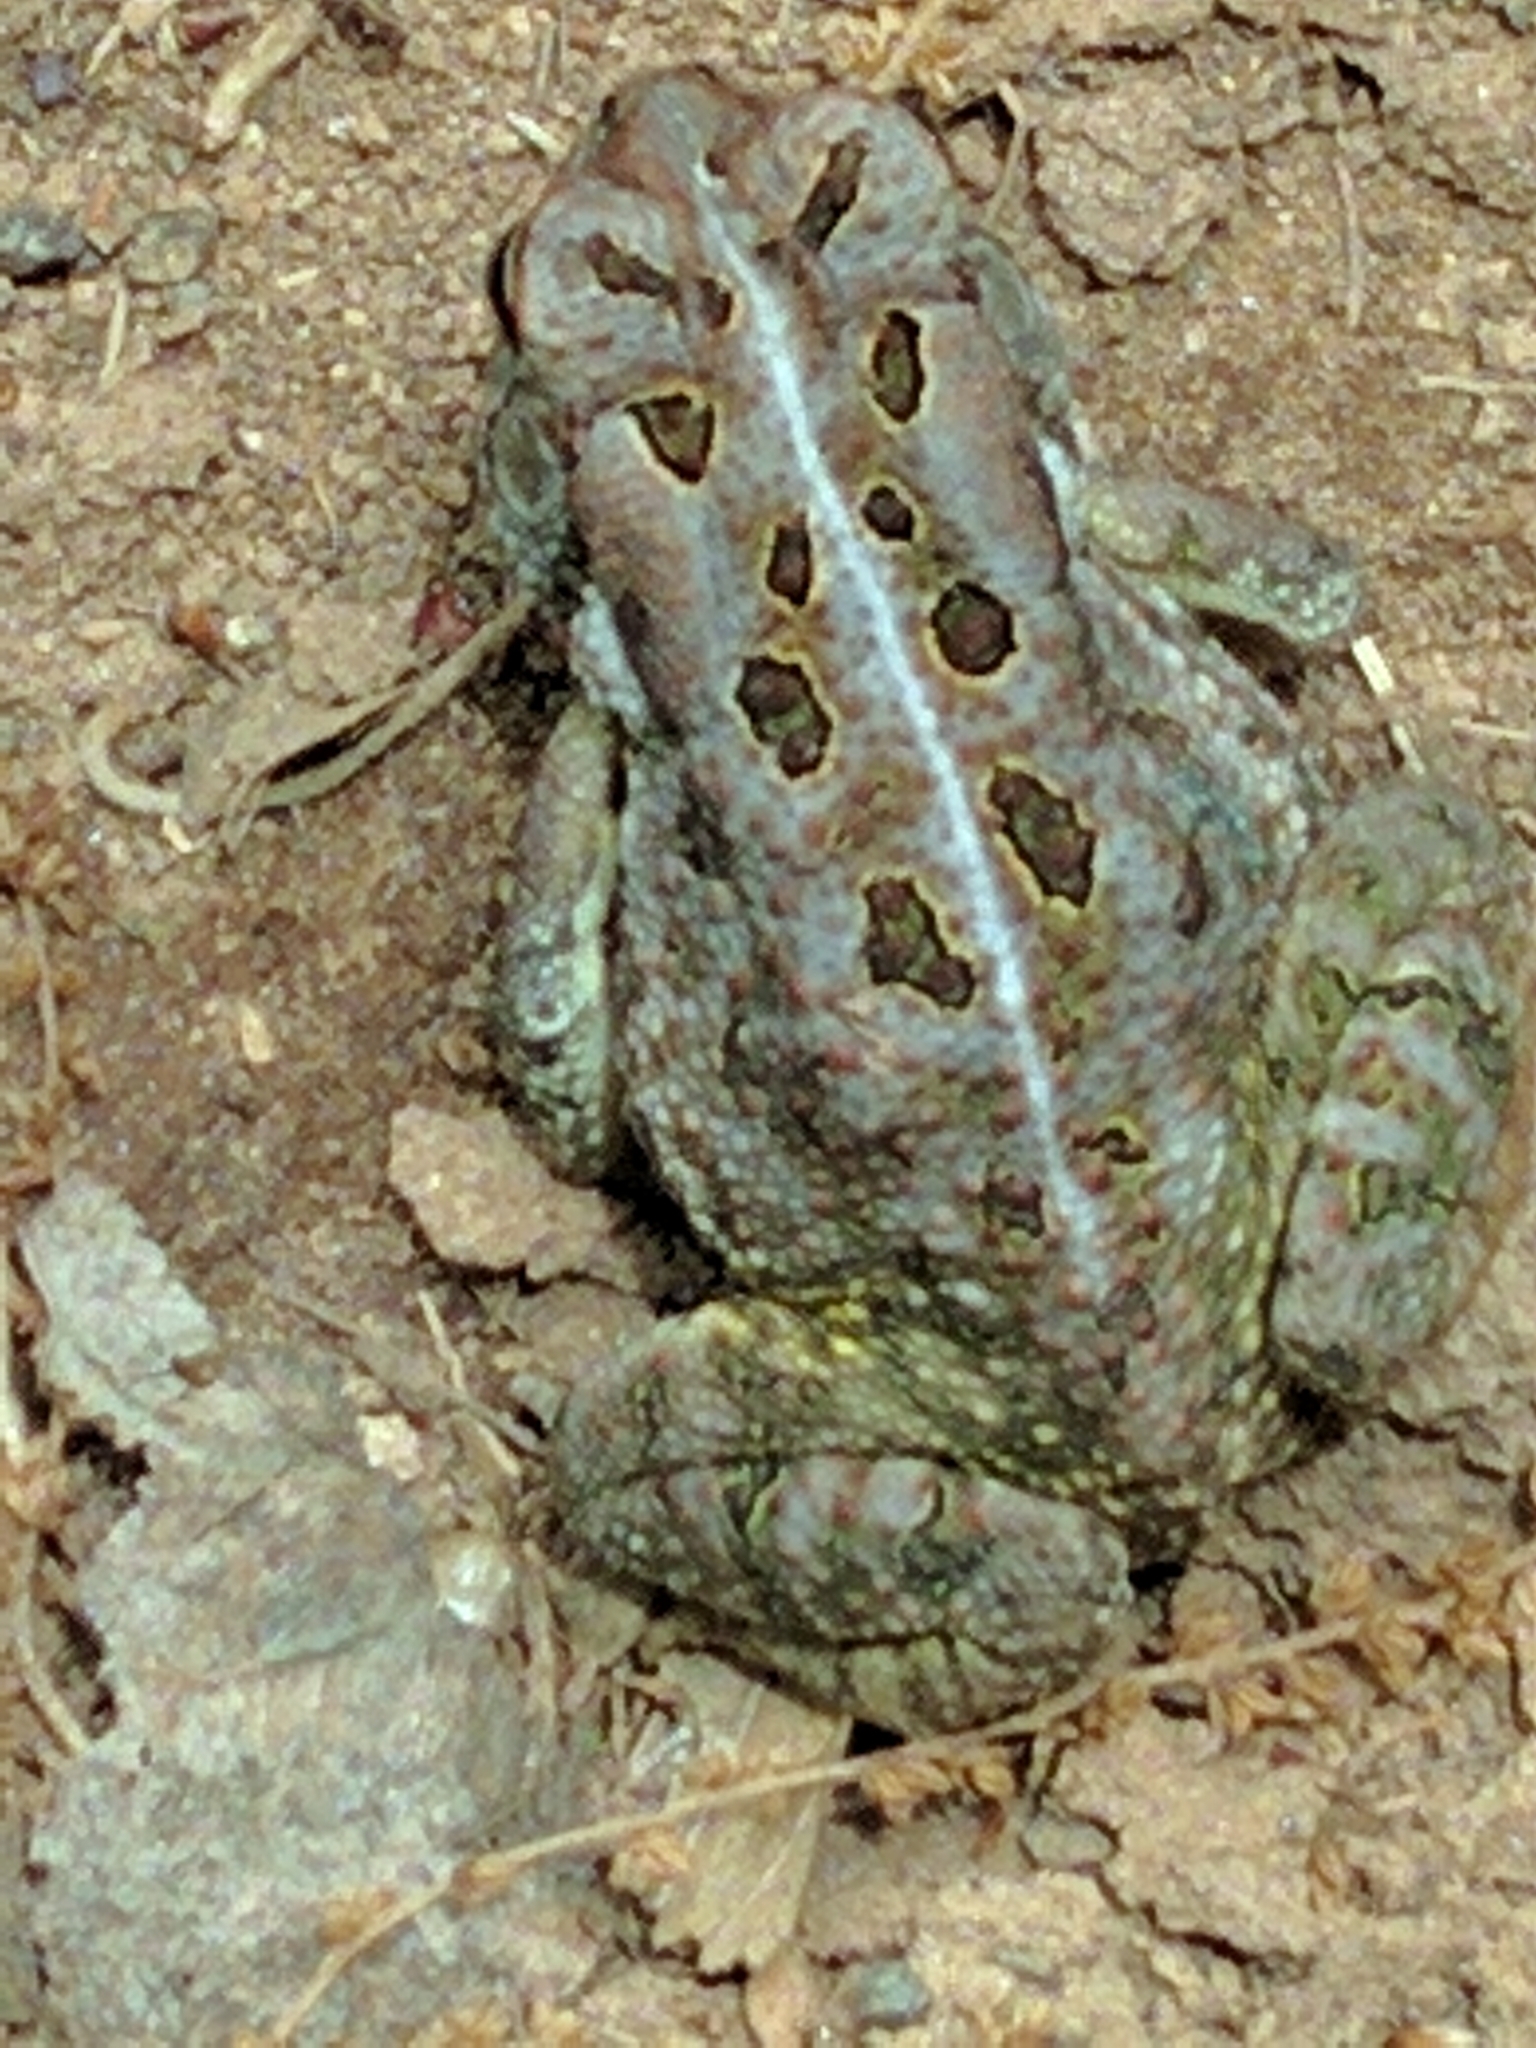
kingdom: Animalia
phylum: Chordata
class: Amphibia
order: Anura
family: Bufonidae
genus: Anaxyrus
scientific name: Anaxyrus fowleri
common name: Fowler's toad
